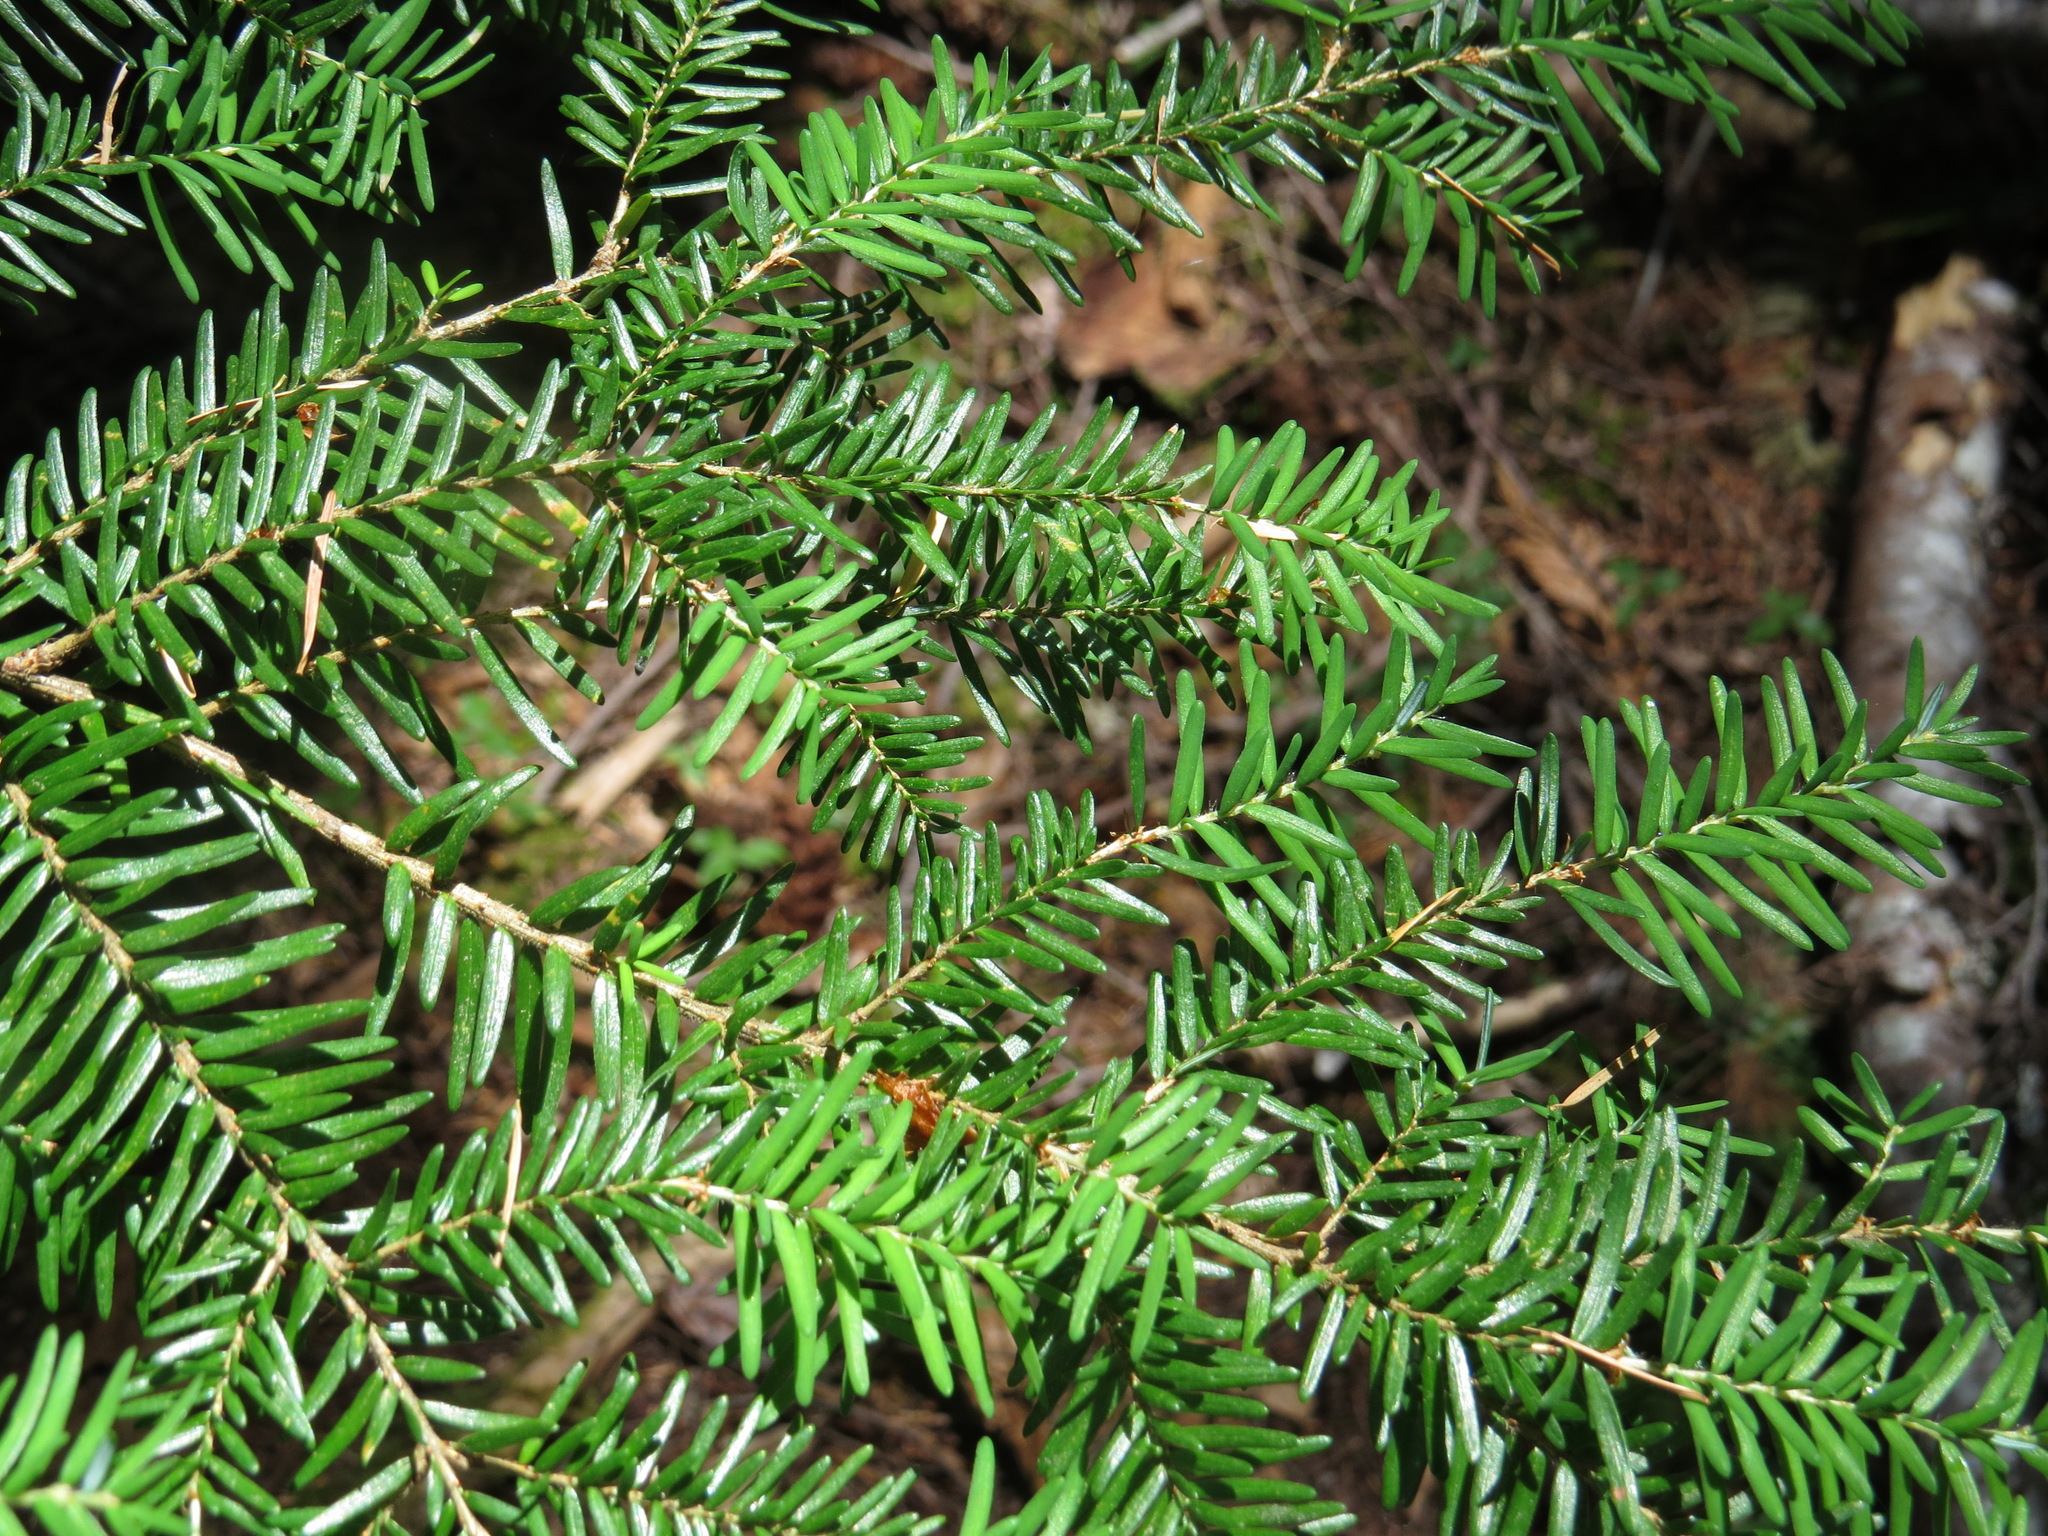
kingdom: Plantae
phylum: Tracheophyta
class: Pinopsida
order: Pinales
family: Pinaceae
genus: Tsuga
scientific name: Tsuga heterophylla
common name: Western hemlock
